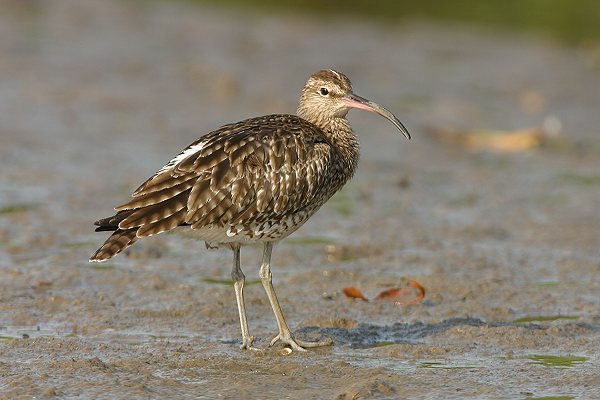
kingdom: Animalia
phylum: Chordata
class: Aves
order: Charadriiformes
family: Scolopacidae
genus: Numenius
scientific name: Numenius phaeopus
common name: Whimbrel
